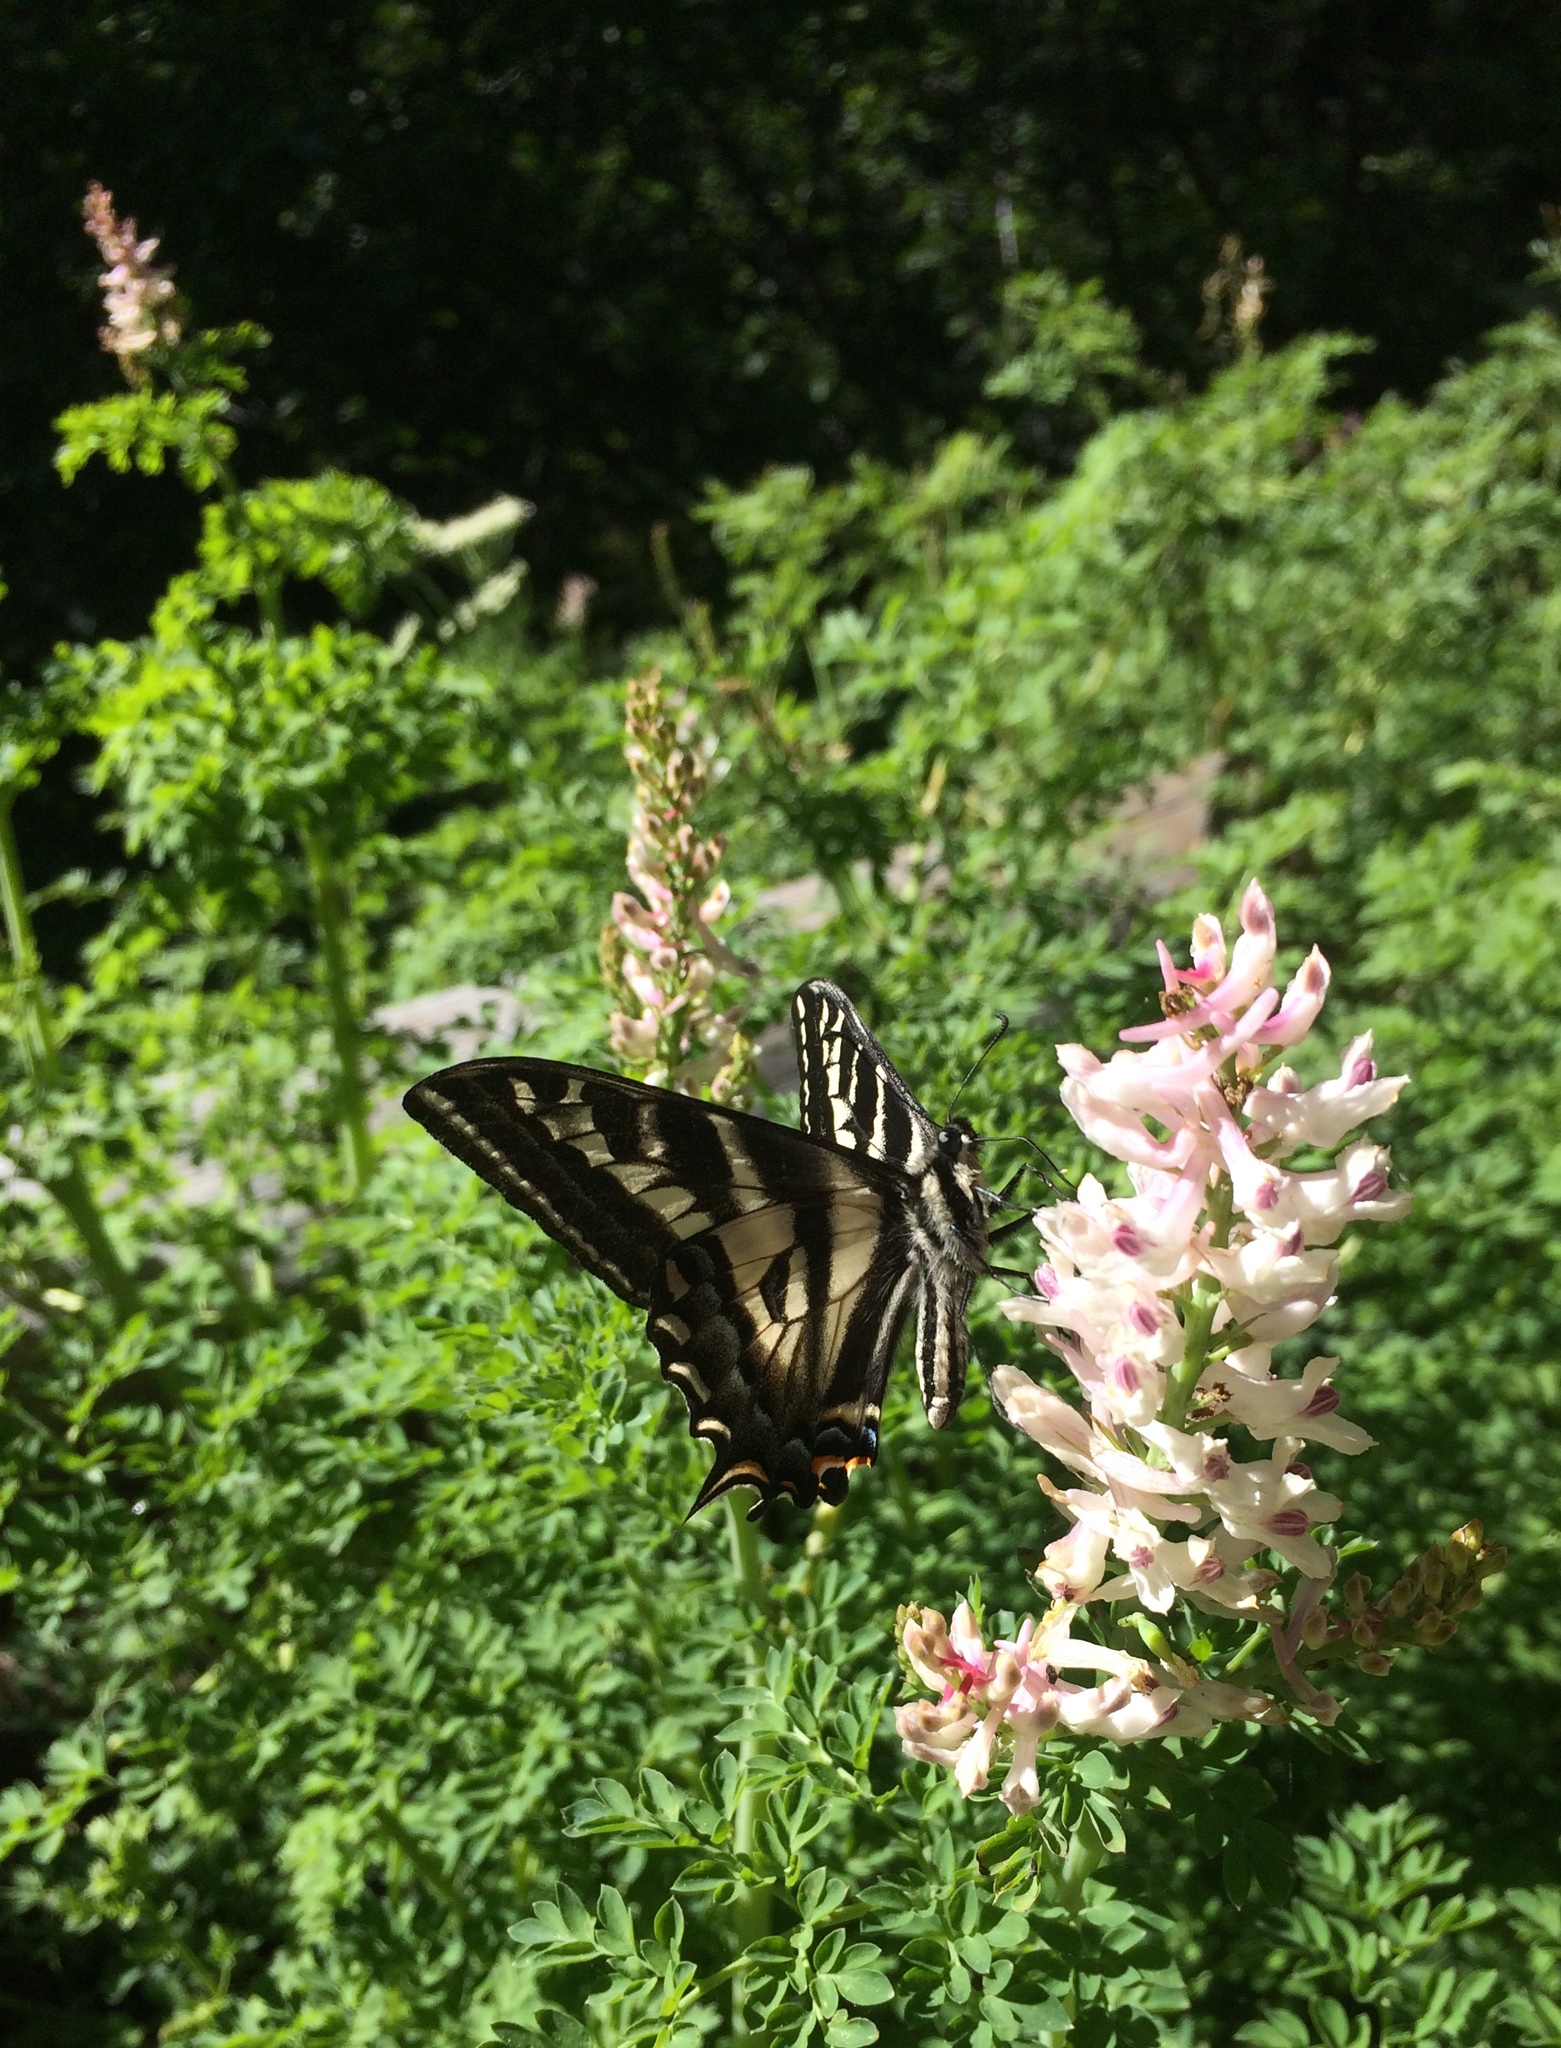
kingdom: Animalia
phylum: Arthropoda
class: Insecta
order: Lepidoptera
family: Papilionidae
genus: Papilio
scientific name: Papilio eurymedon
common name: Pale tiger swallowtail
